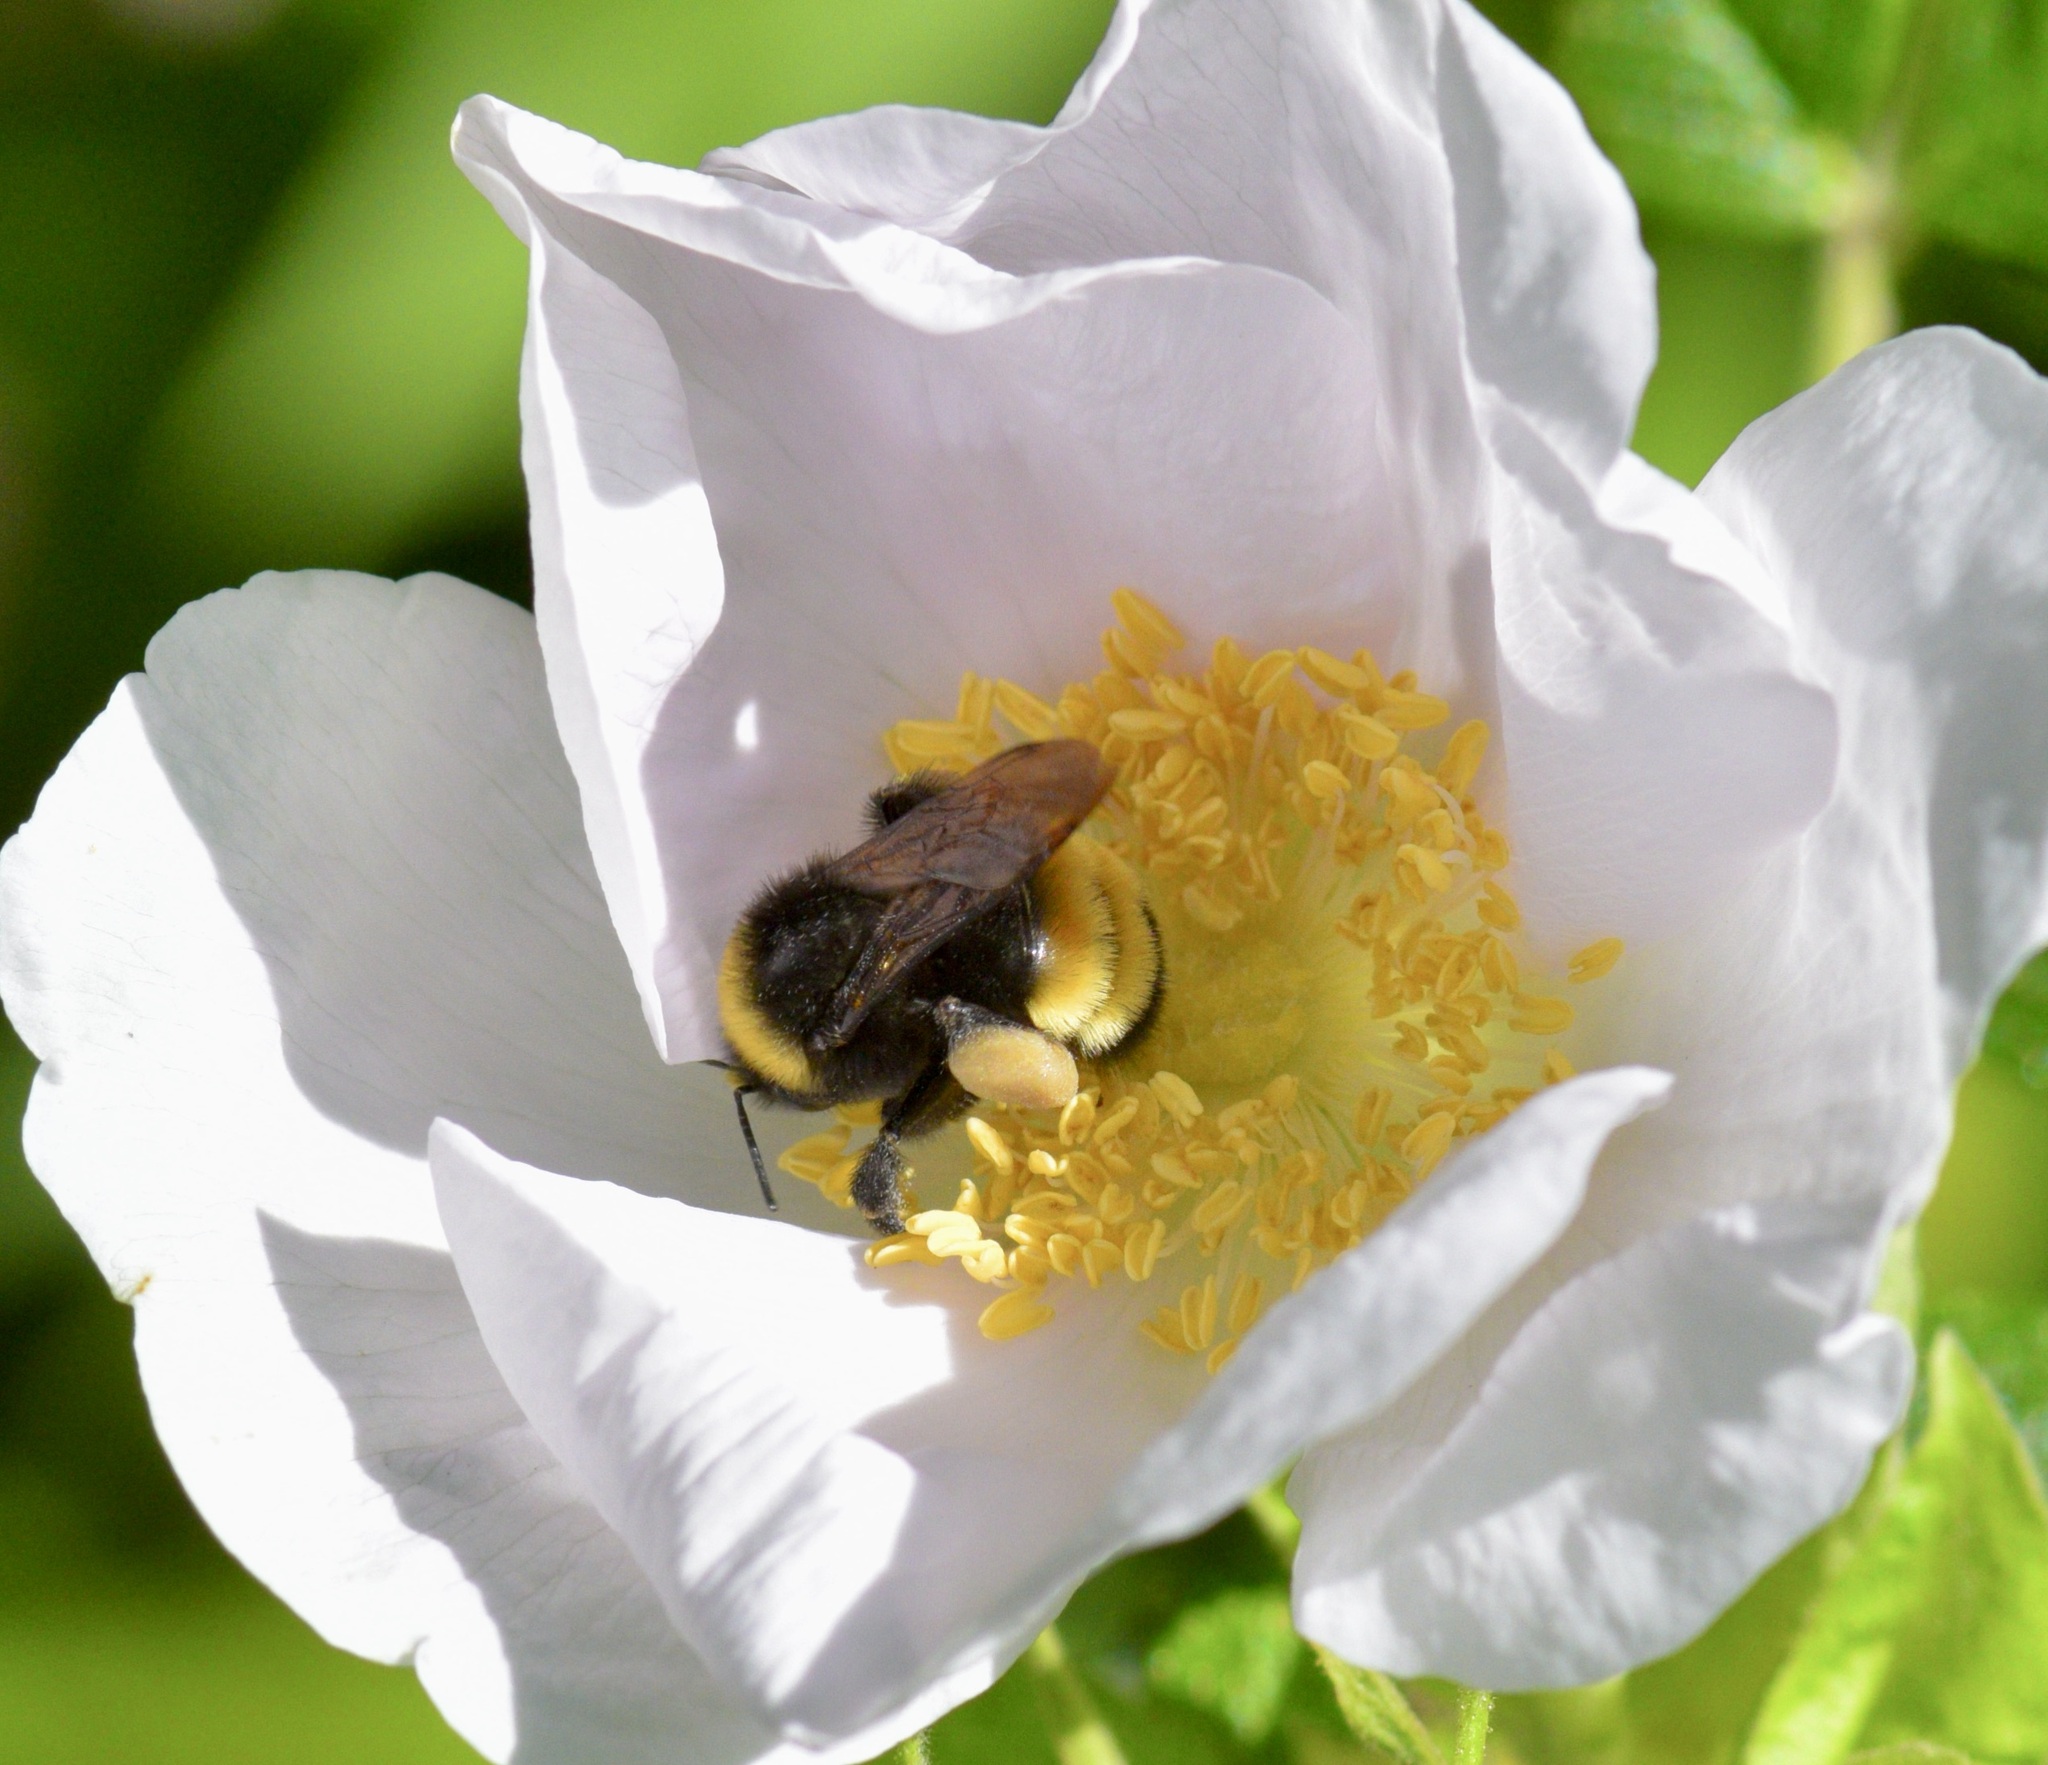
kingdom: Animalia
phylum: Arthropoda
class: Insecta
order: Hymenoptera
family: Apidae
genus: Bombus
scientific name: Bombus terricola
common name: Yellow-banded bumble bee
